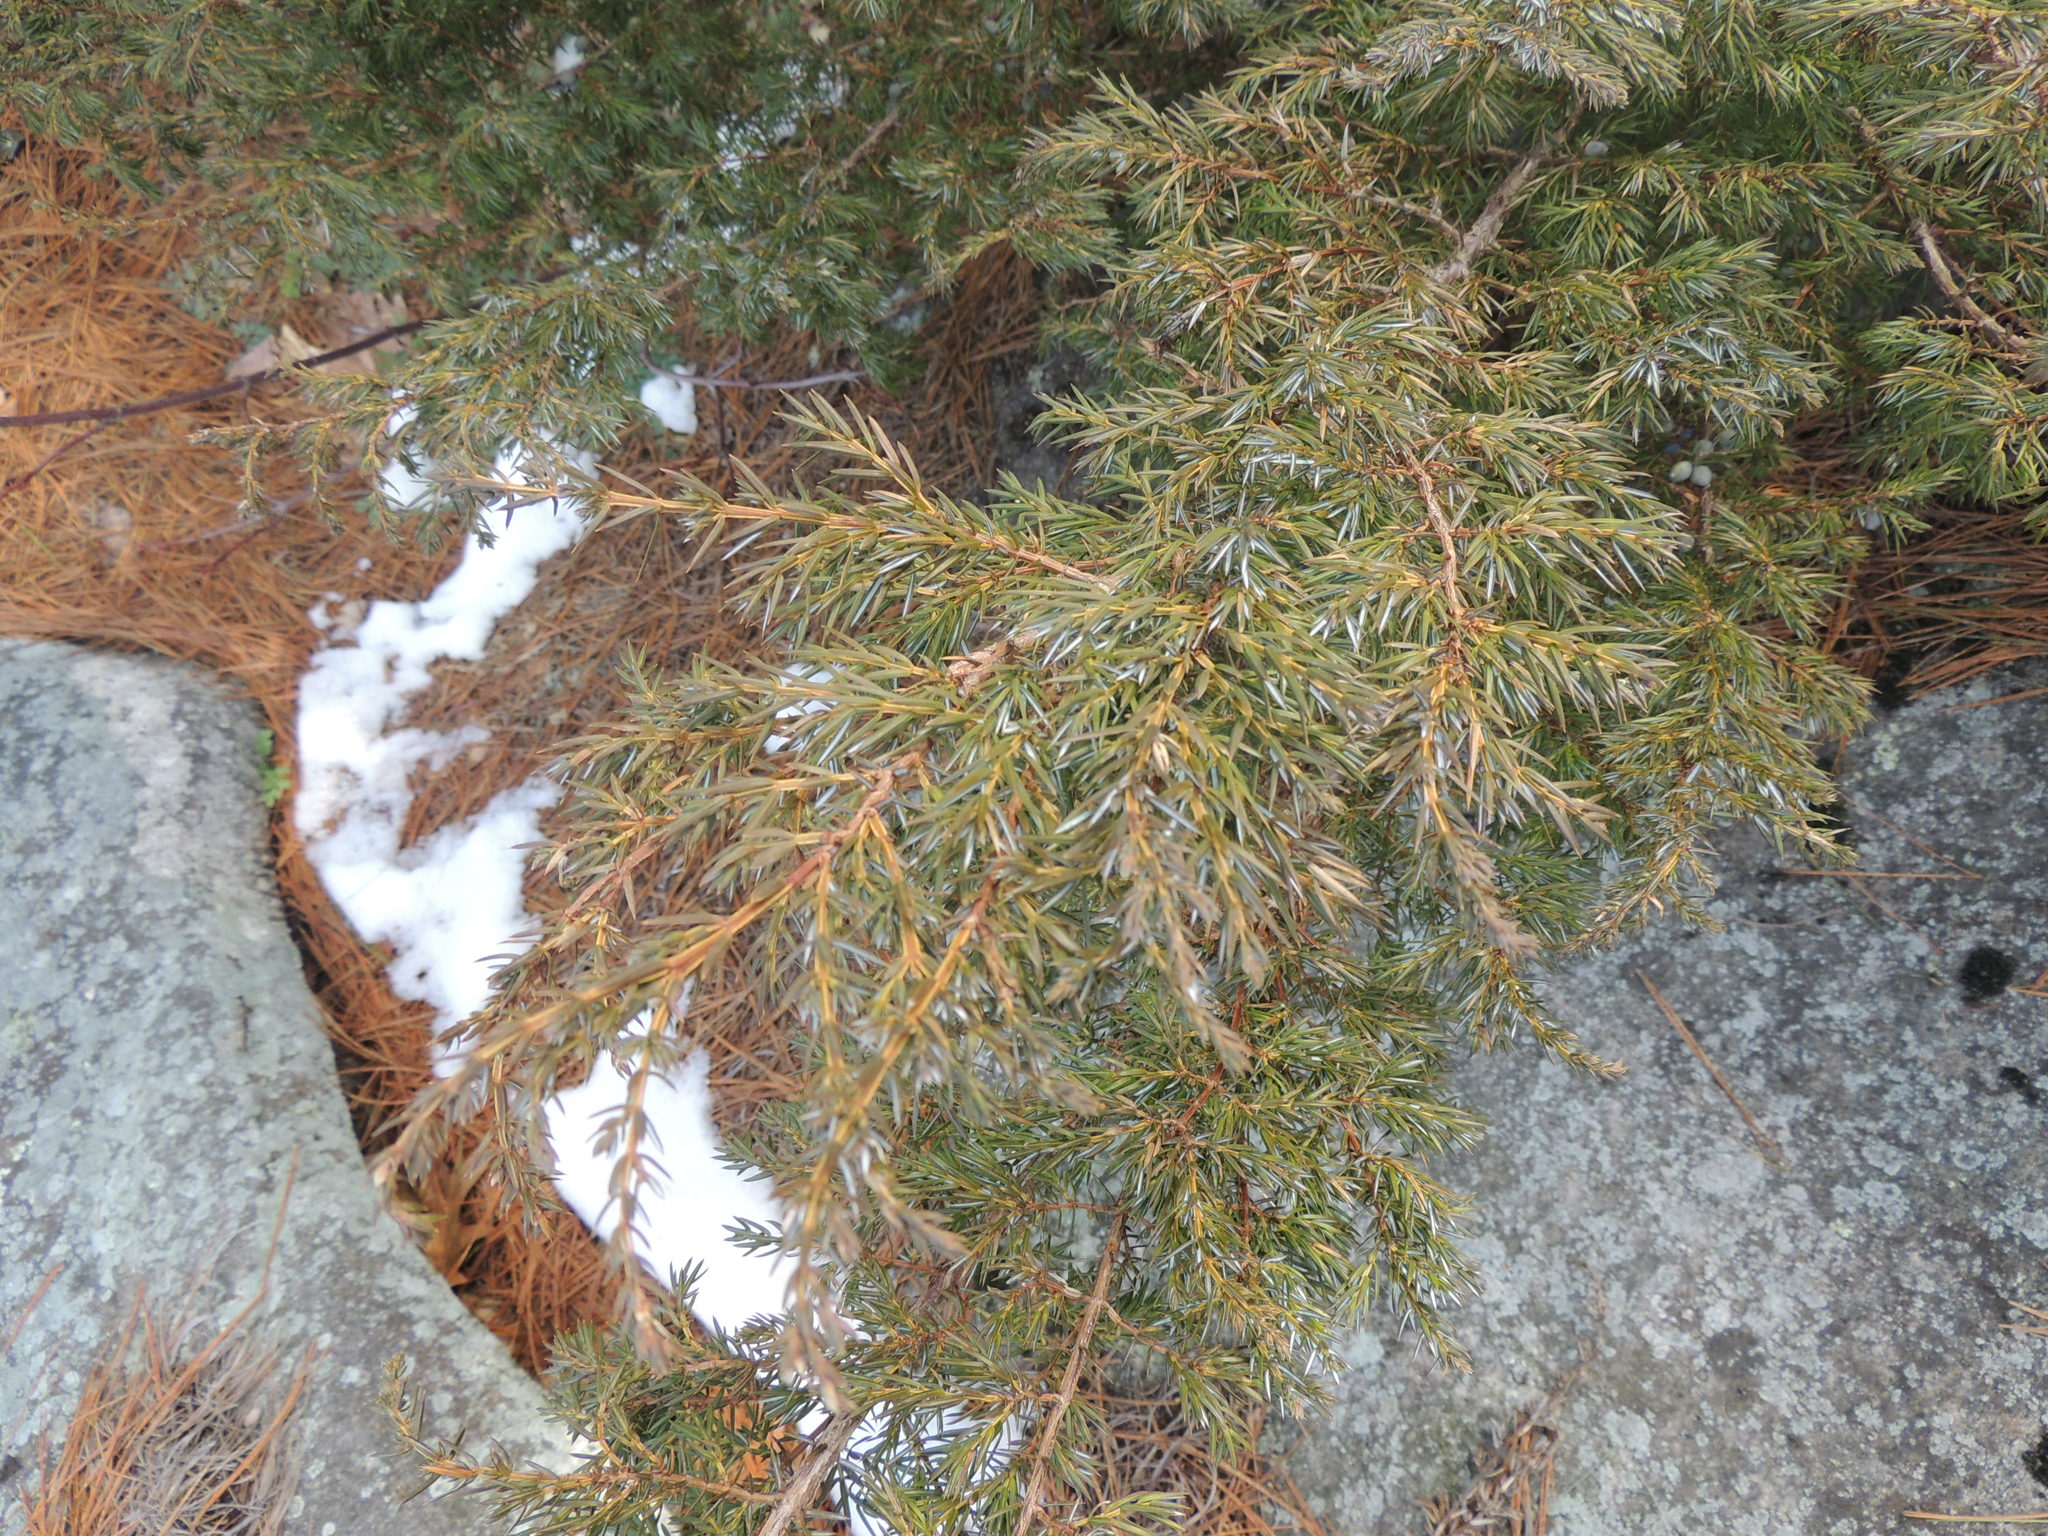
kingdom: Plantae
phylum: Tracheophyta
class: Pinopsida
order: Pinales
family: Cupressaceae
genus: Juniperus
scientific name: Juniperus communis
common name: Common juniper
